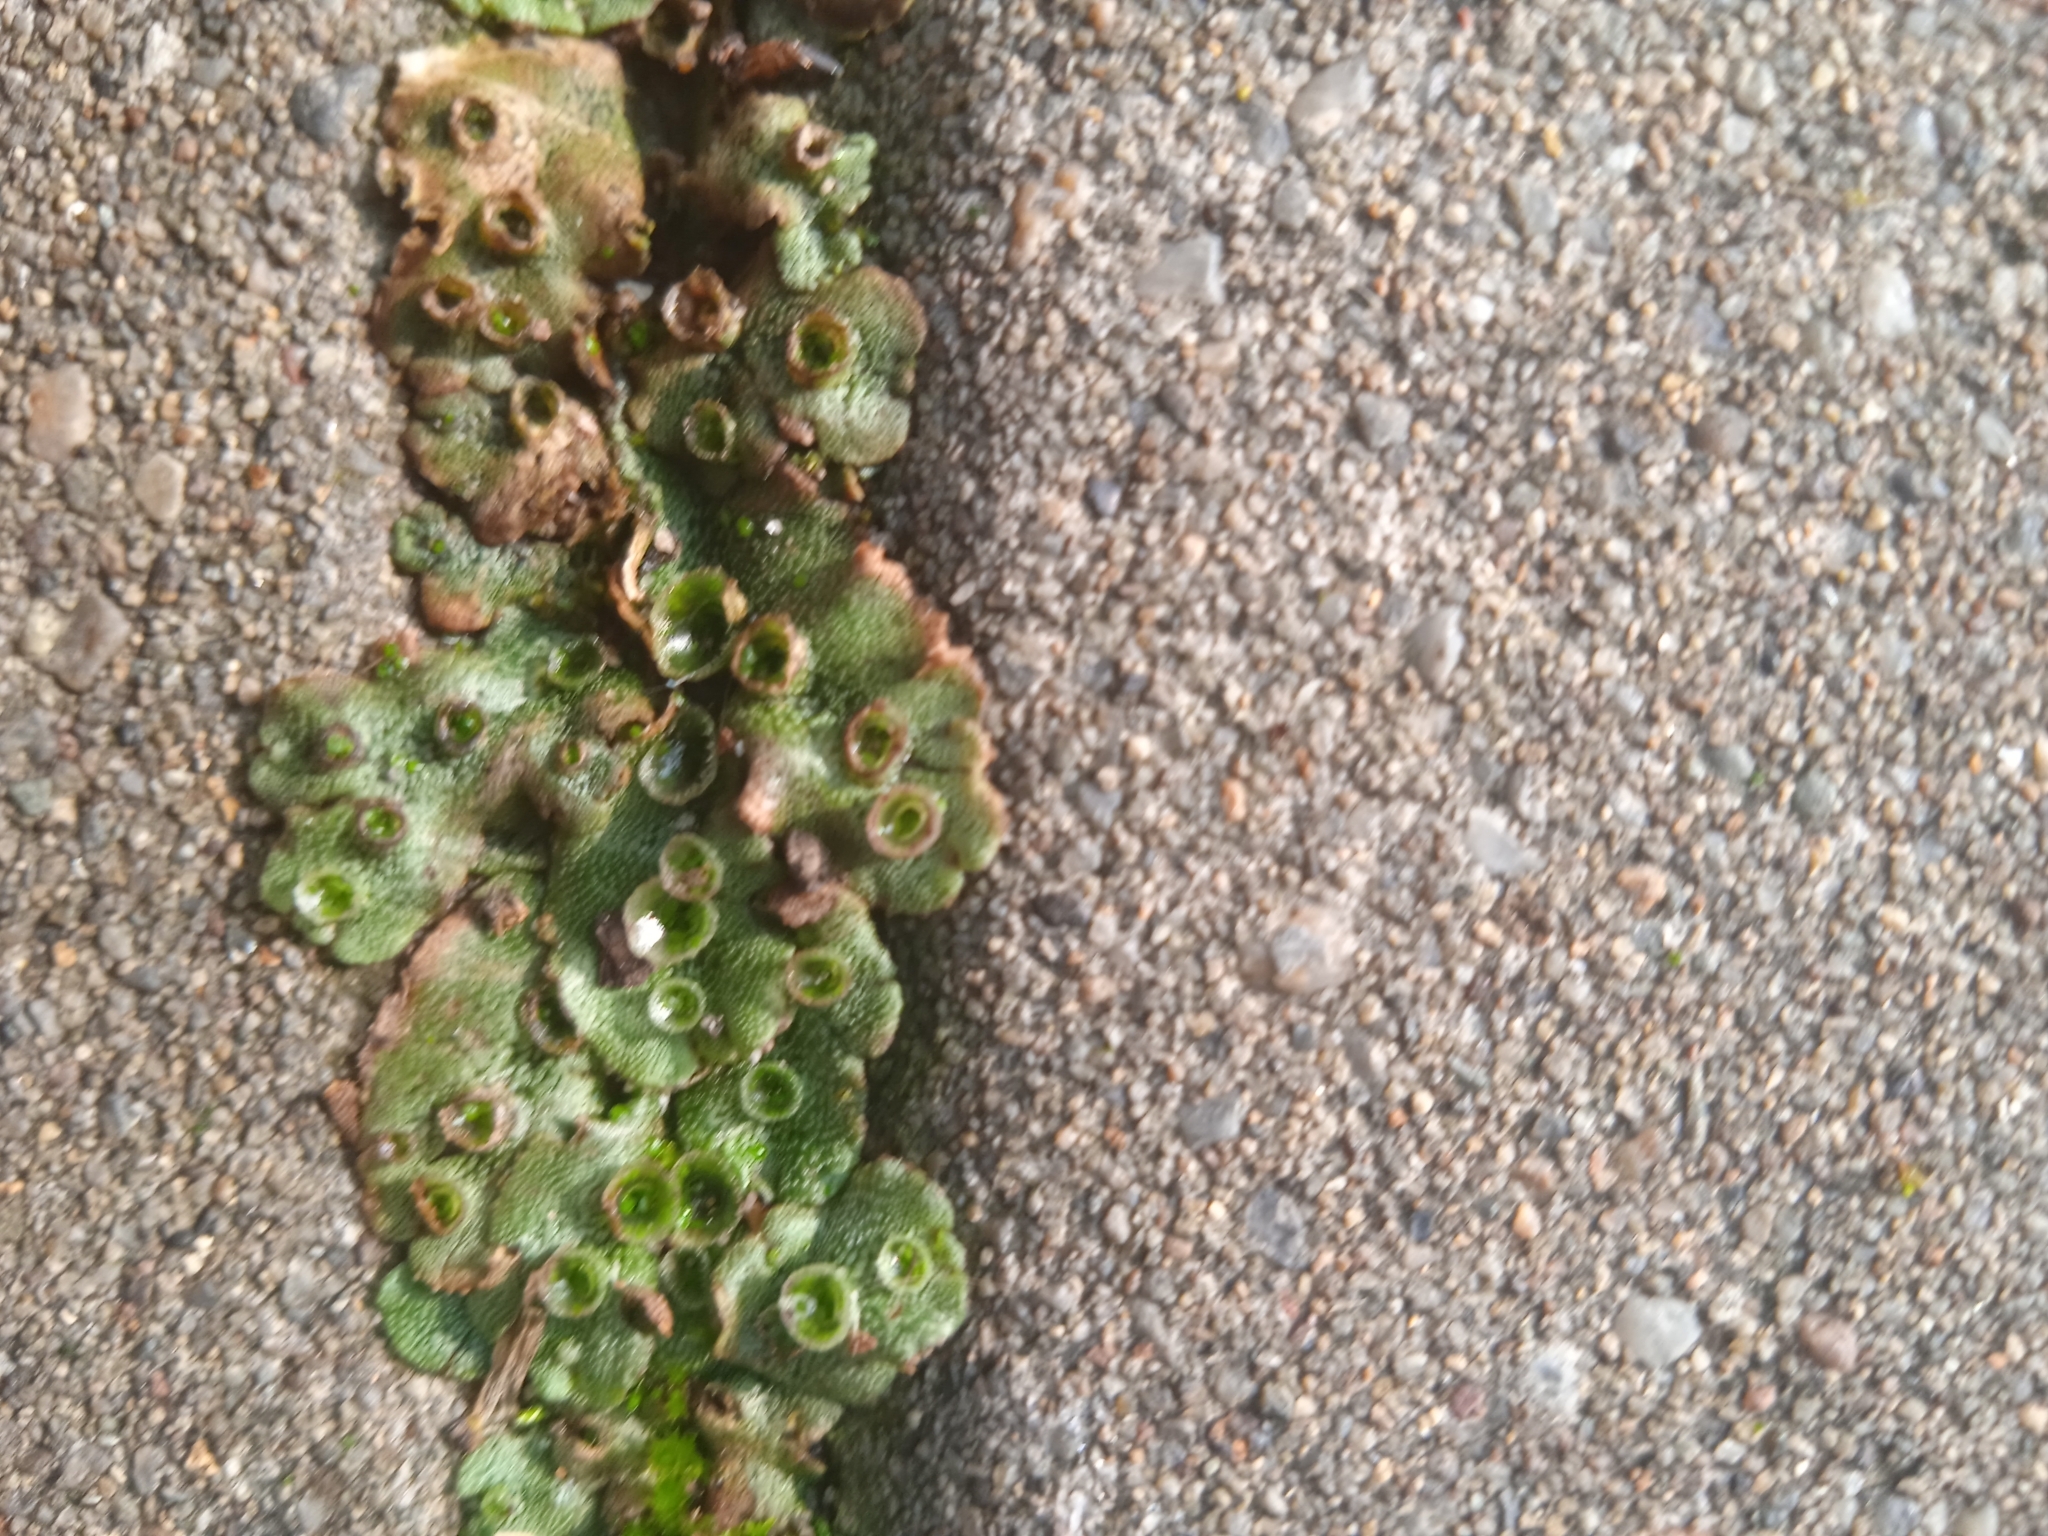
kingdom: Plantae
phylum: Marchantiophyta
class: Marchantiopsida
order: Marchantiales
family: Marchantiaceae
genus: Marchantia
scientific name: Marchantia polymorpha
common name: Common liverwort
